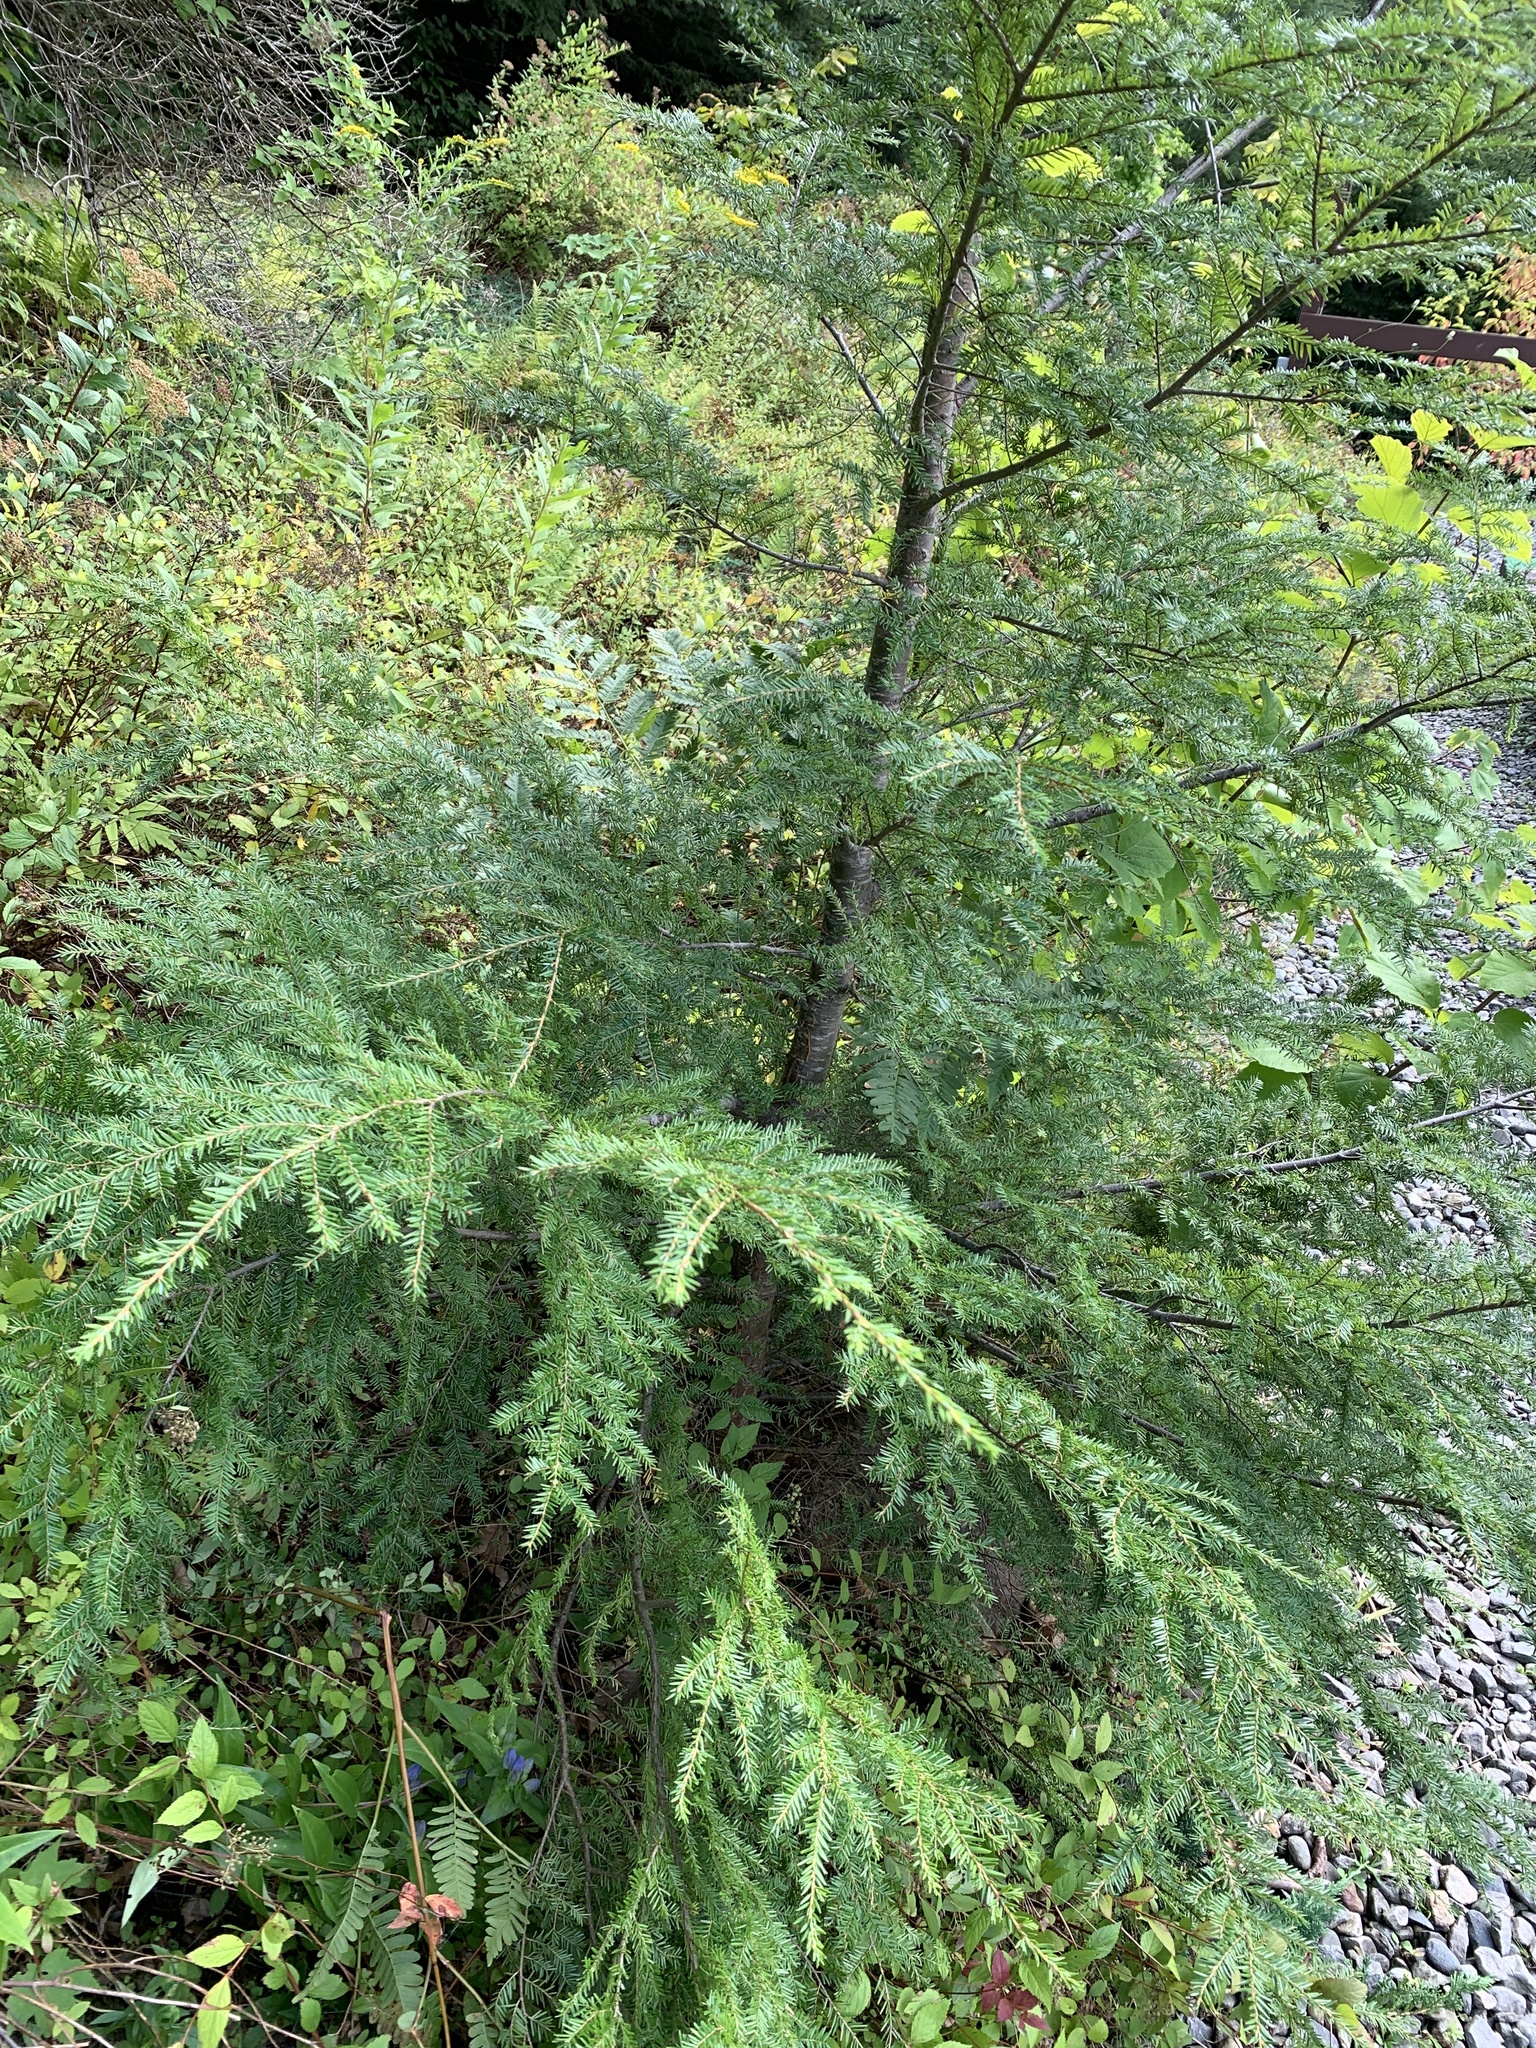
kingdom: Plantae
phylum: Tracheophyta
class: Pinopsida
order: Pinales
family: Pinaceae
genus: Tsuga
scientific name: Tsuga canadensis
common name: Eastern hemlock
